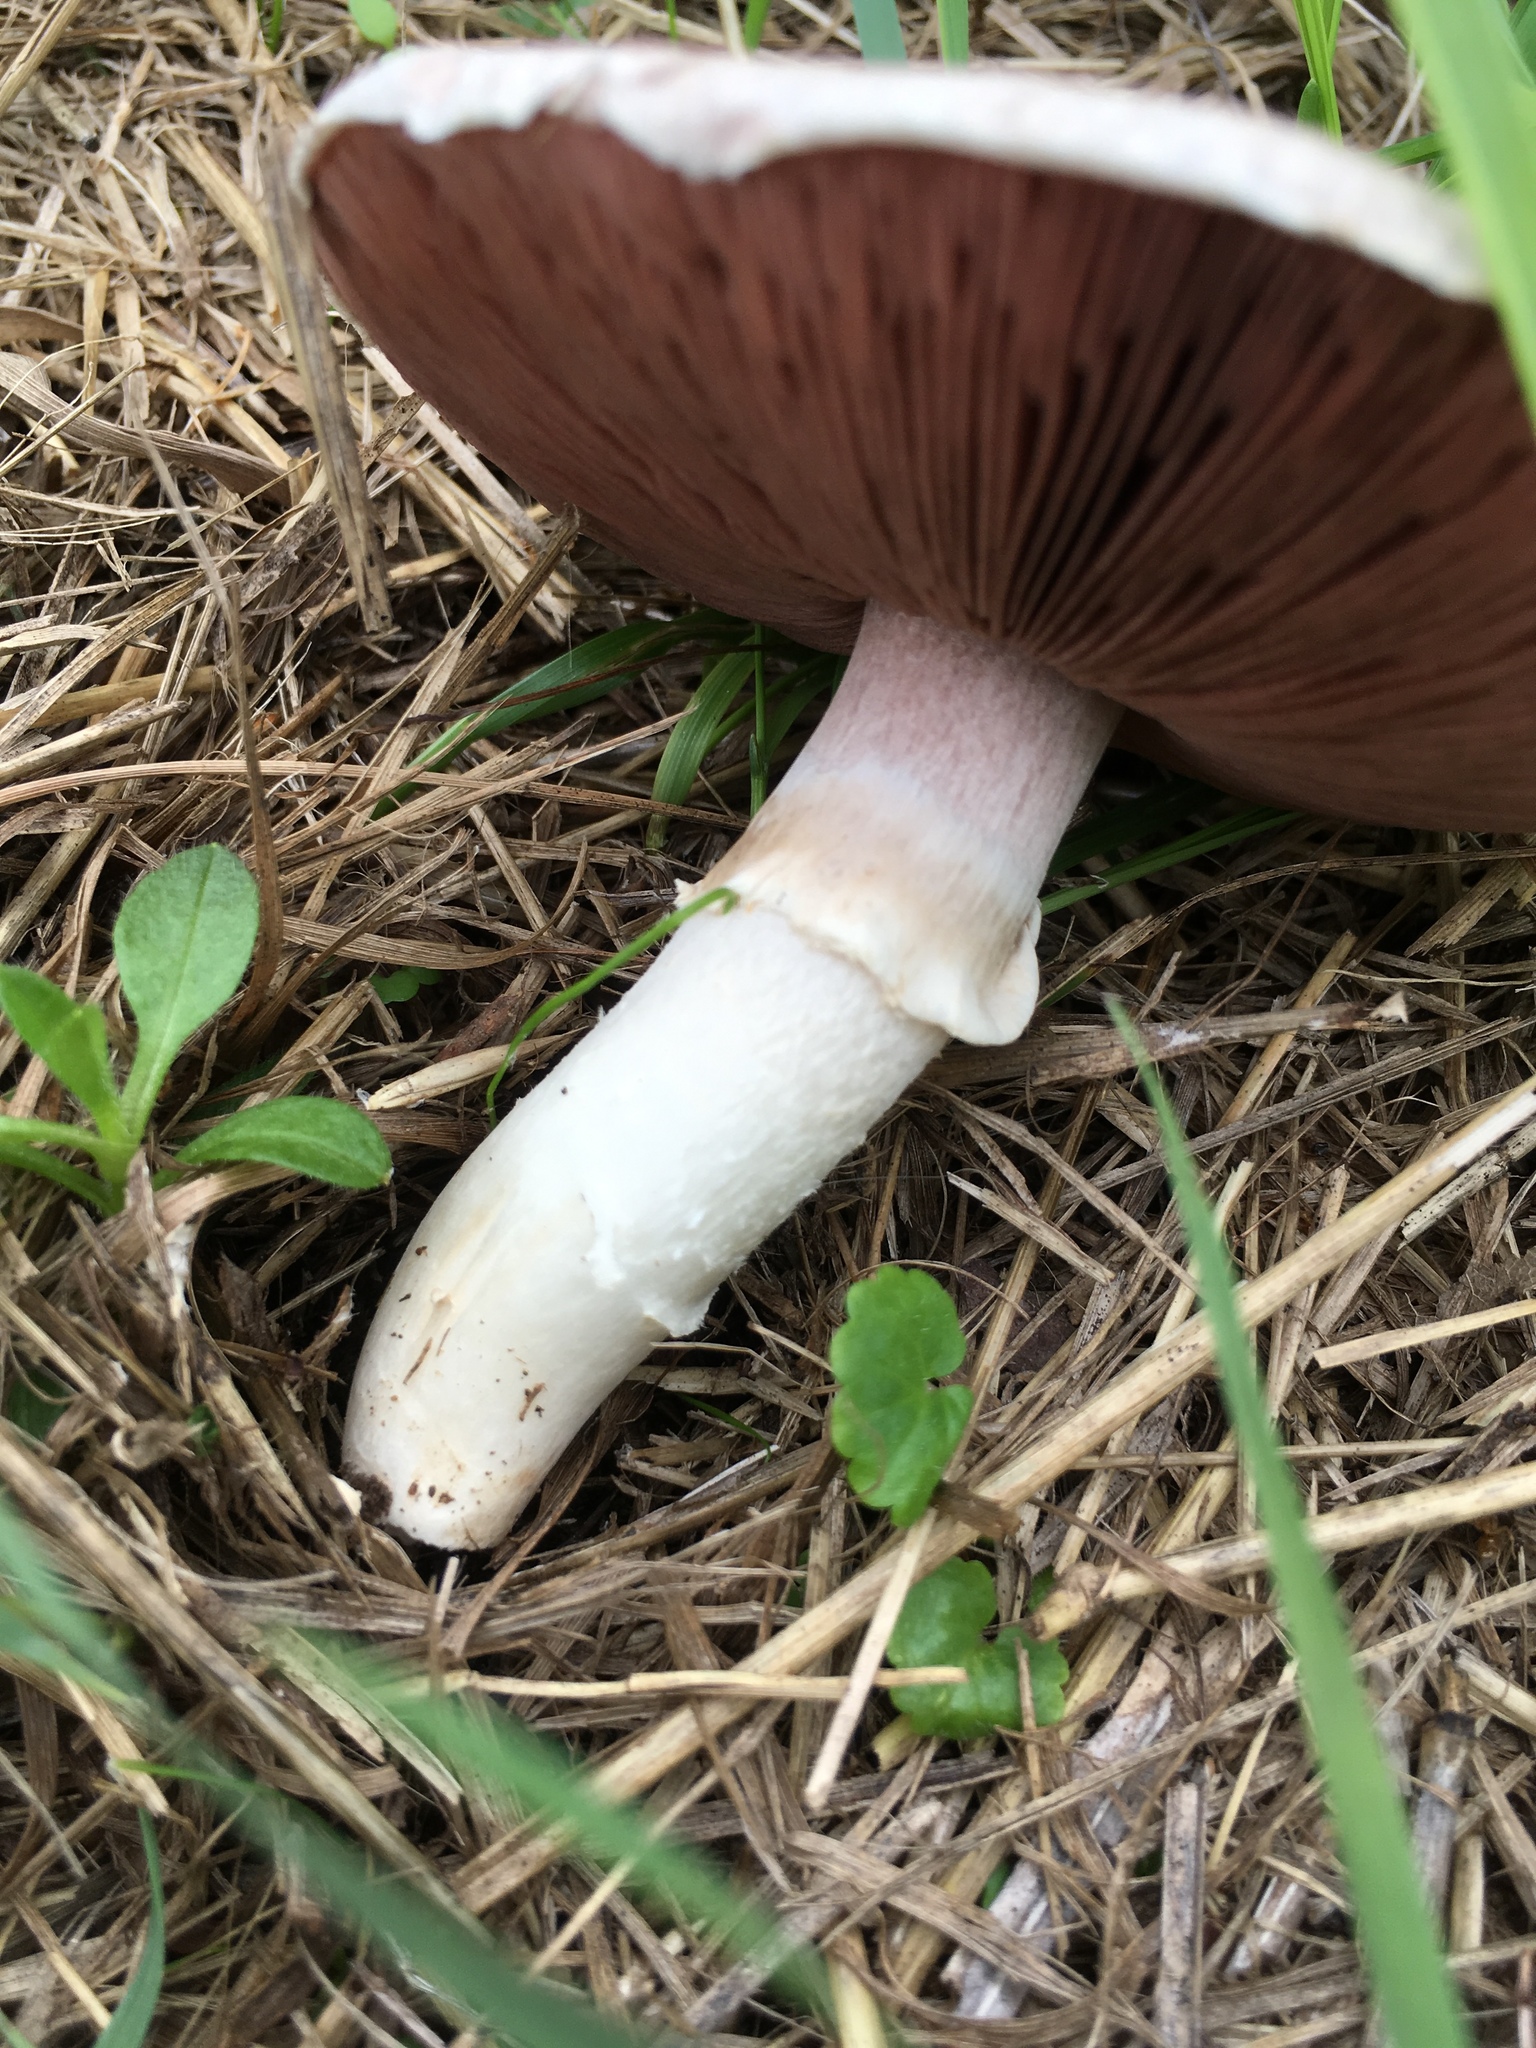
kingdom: Fungi
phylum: Basidiomycota
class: Agaricomycetes
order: Agaricales
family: Agaricaceae
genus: Agaricus
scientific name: Agaricus campestris
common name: Field mushroom
